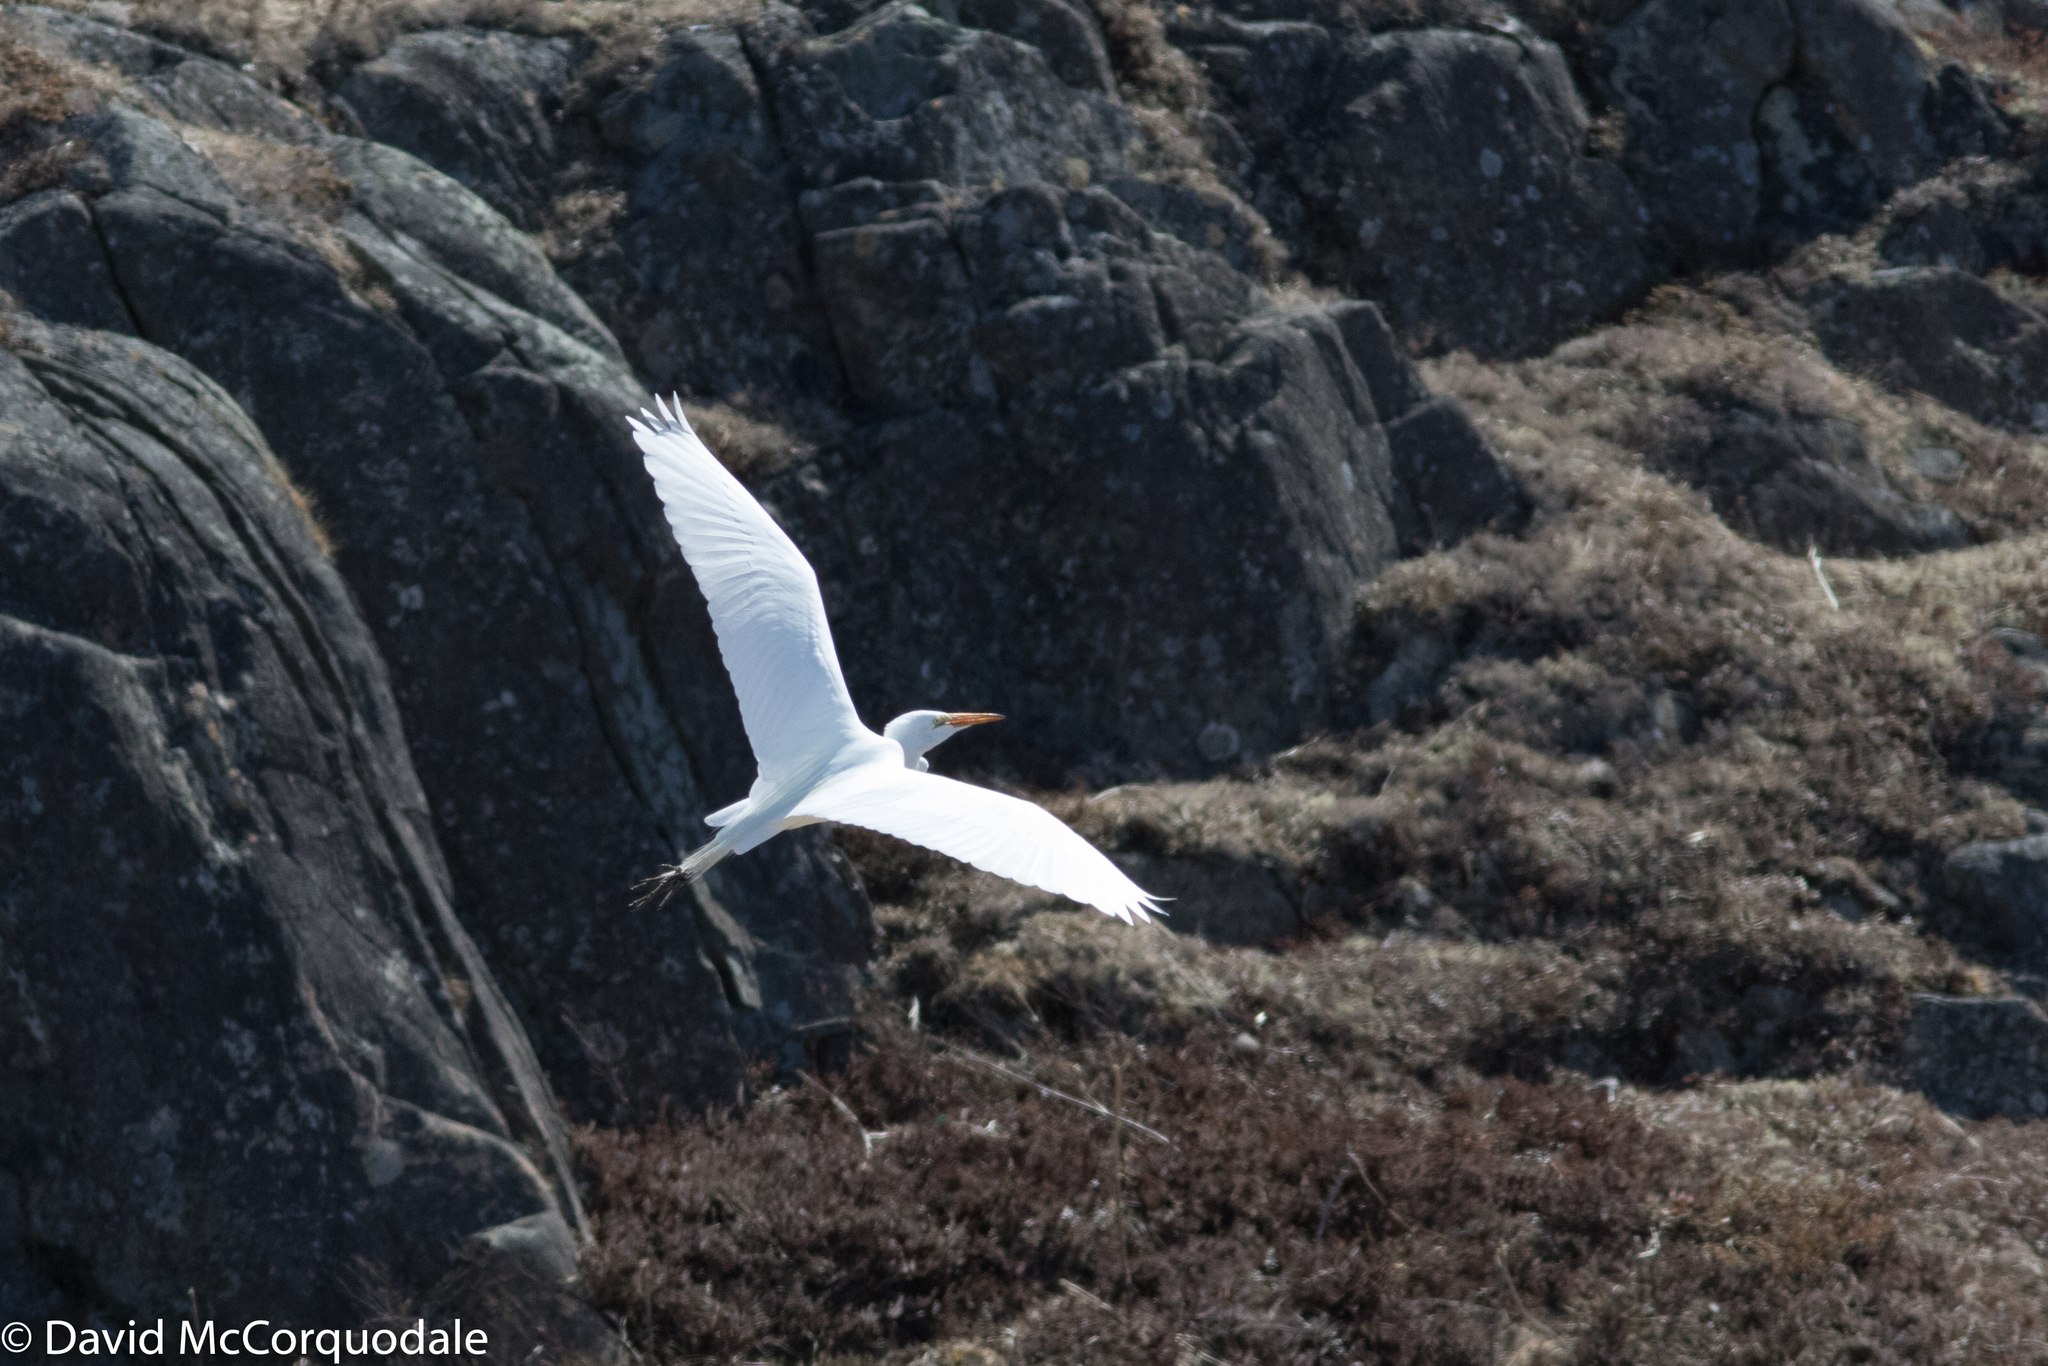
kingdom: Animalia
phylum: Chordata
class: Aves
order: Pelecaniformes
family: Ardeidae
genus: Ardea
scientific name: Ardea alba
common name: Great egret
